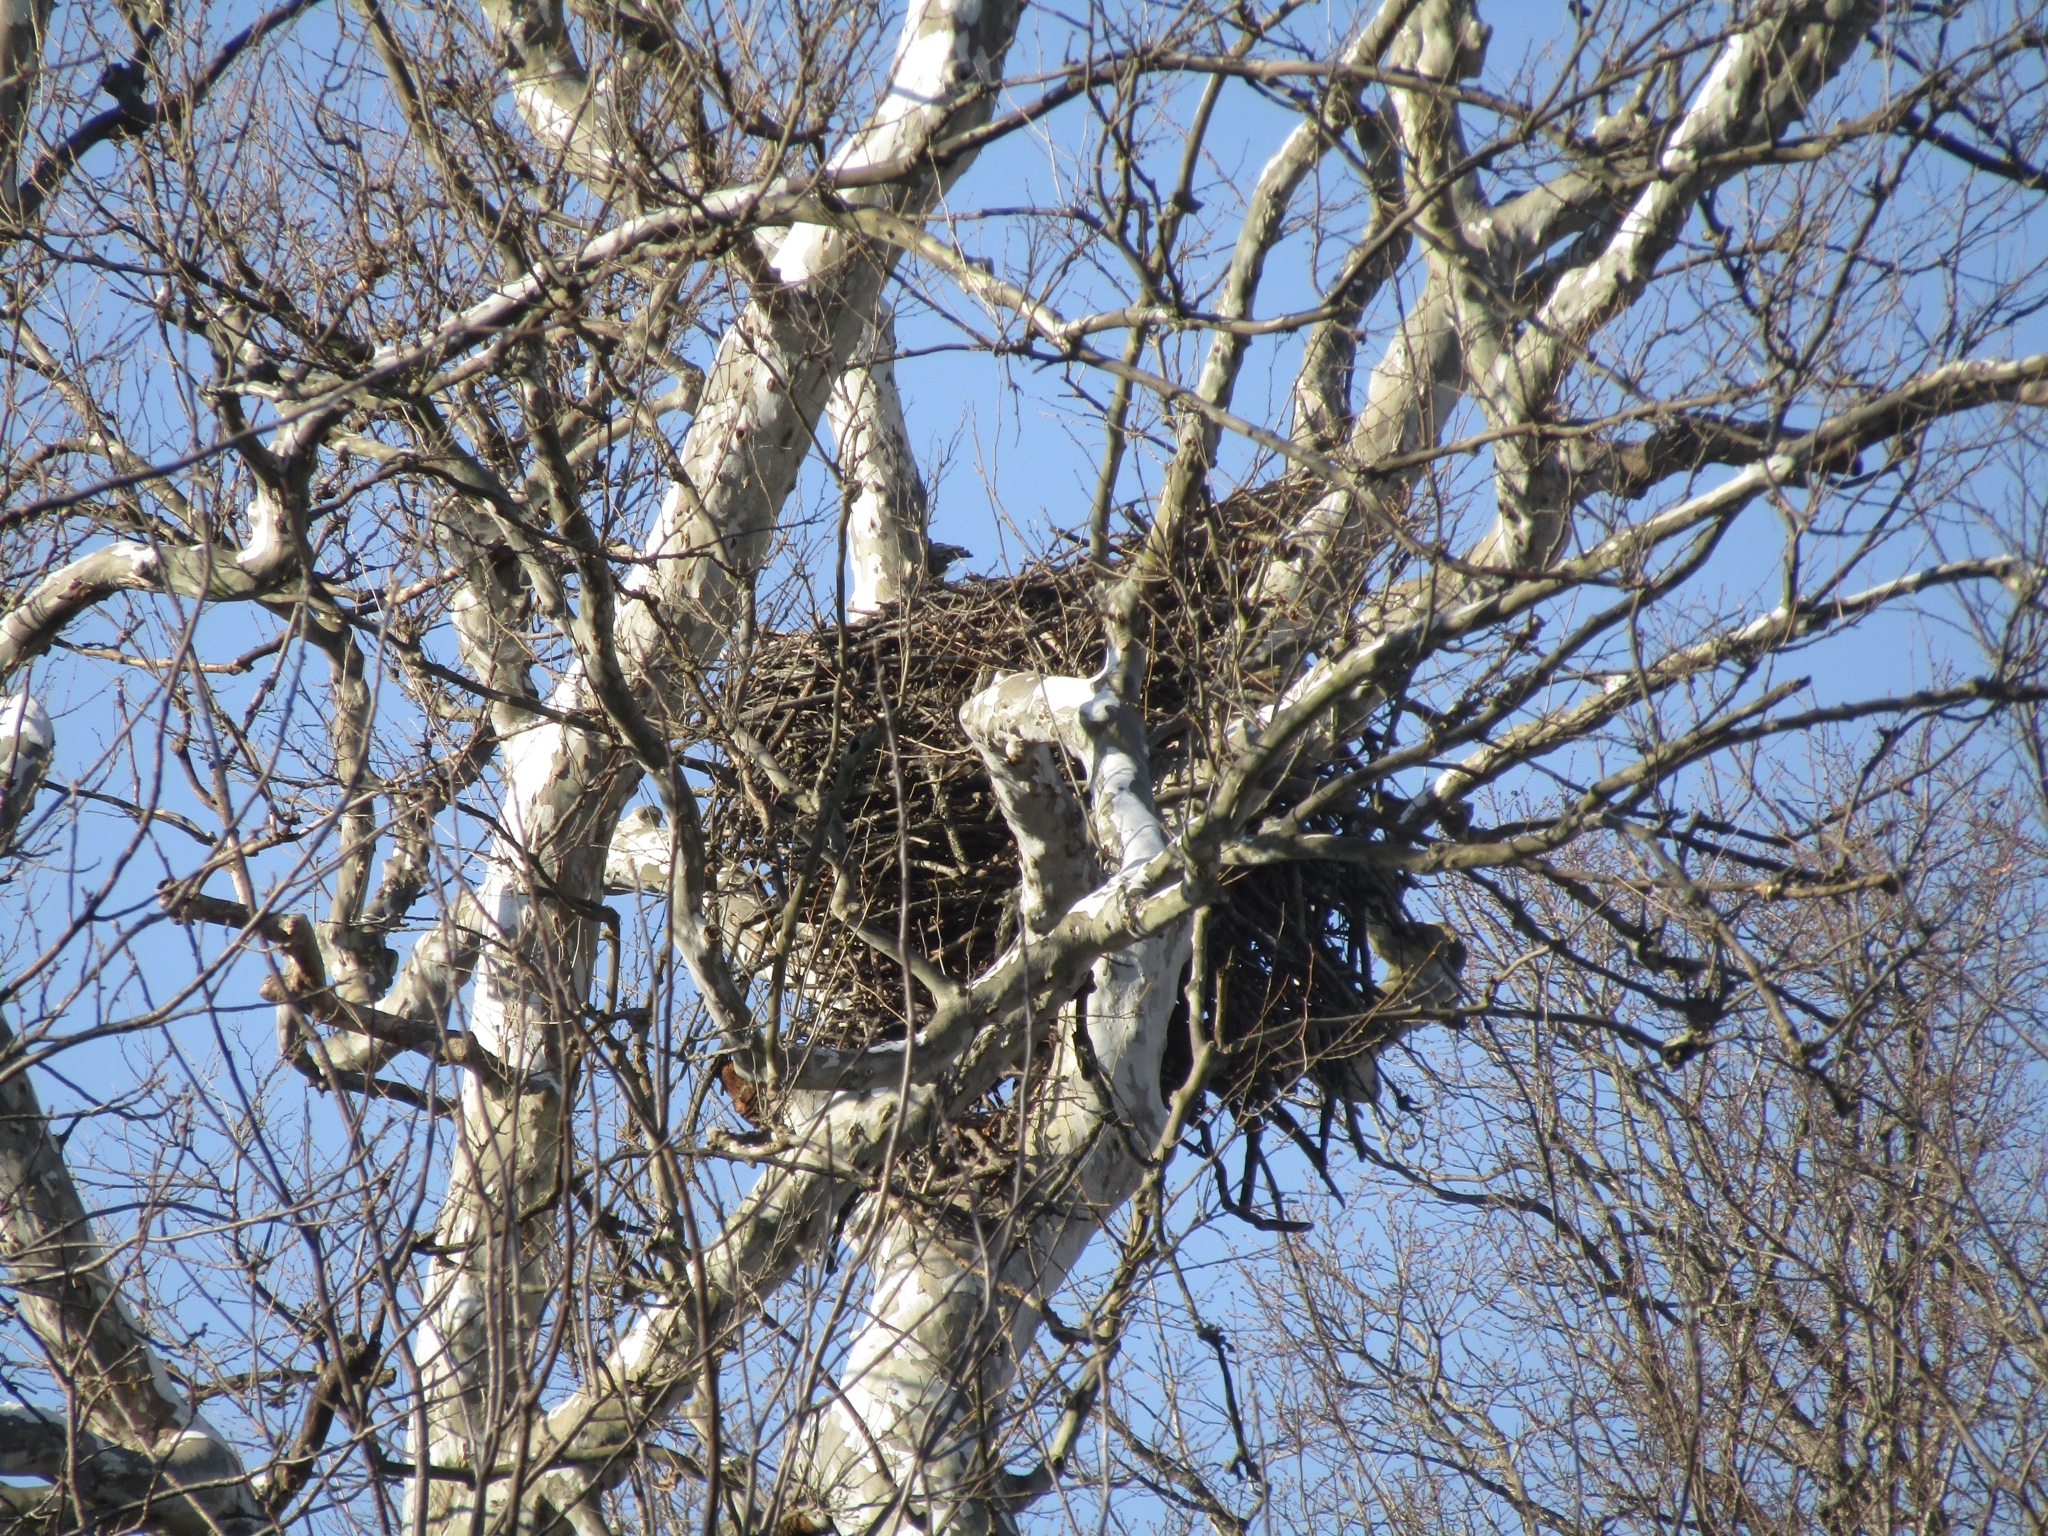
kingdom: Animalia
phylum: Chordata
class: Aves
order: Accipitriformes
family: Accipitridae
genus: Haliaeetus
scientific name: Haliaeetus leucocephalus
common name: Bald eagle
